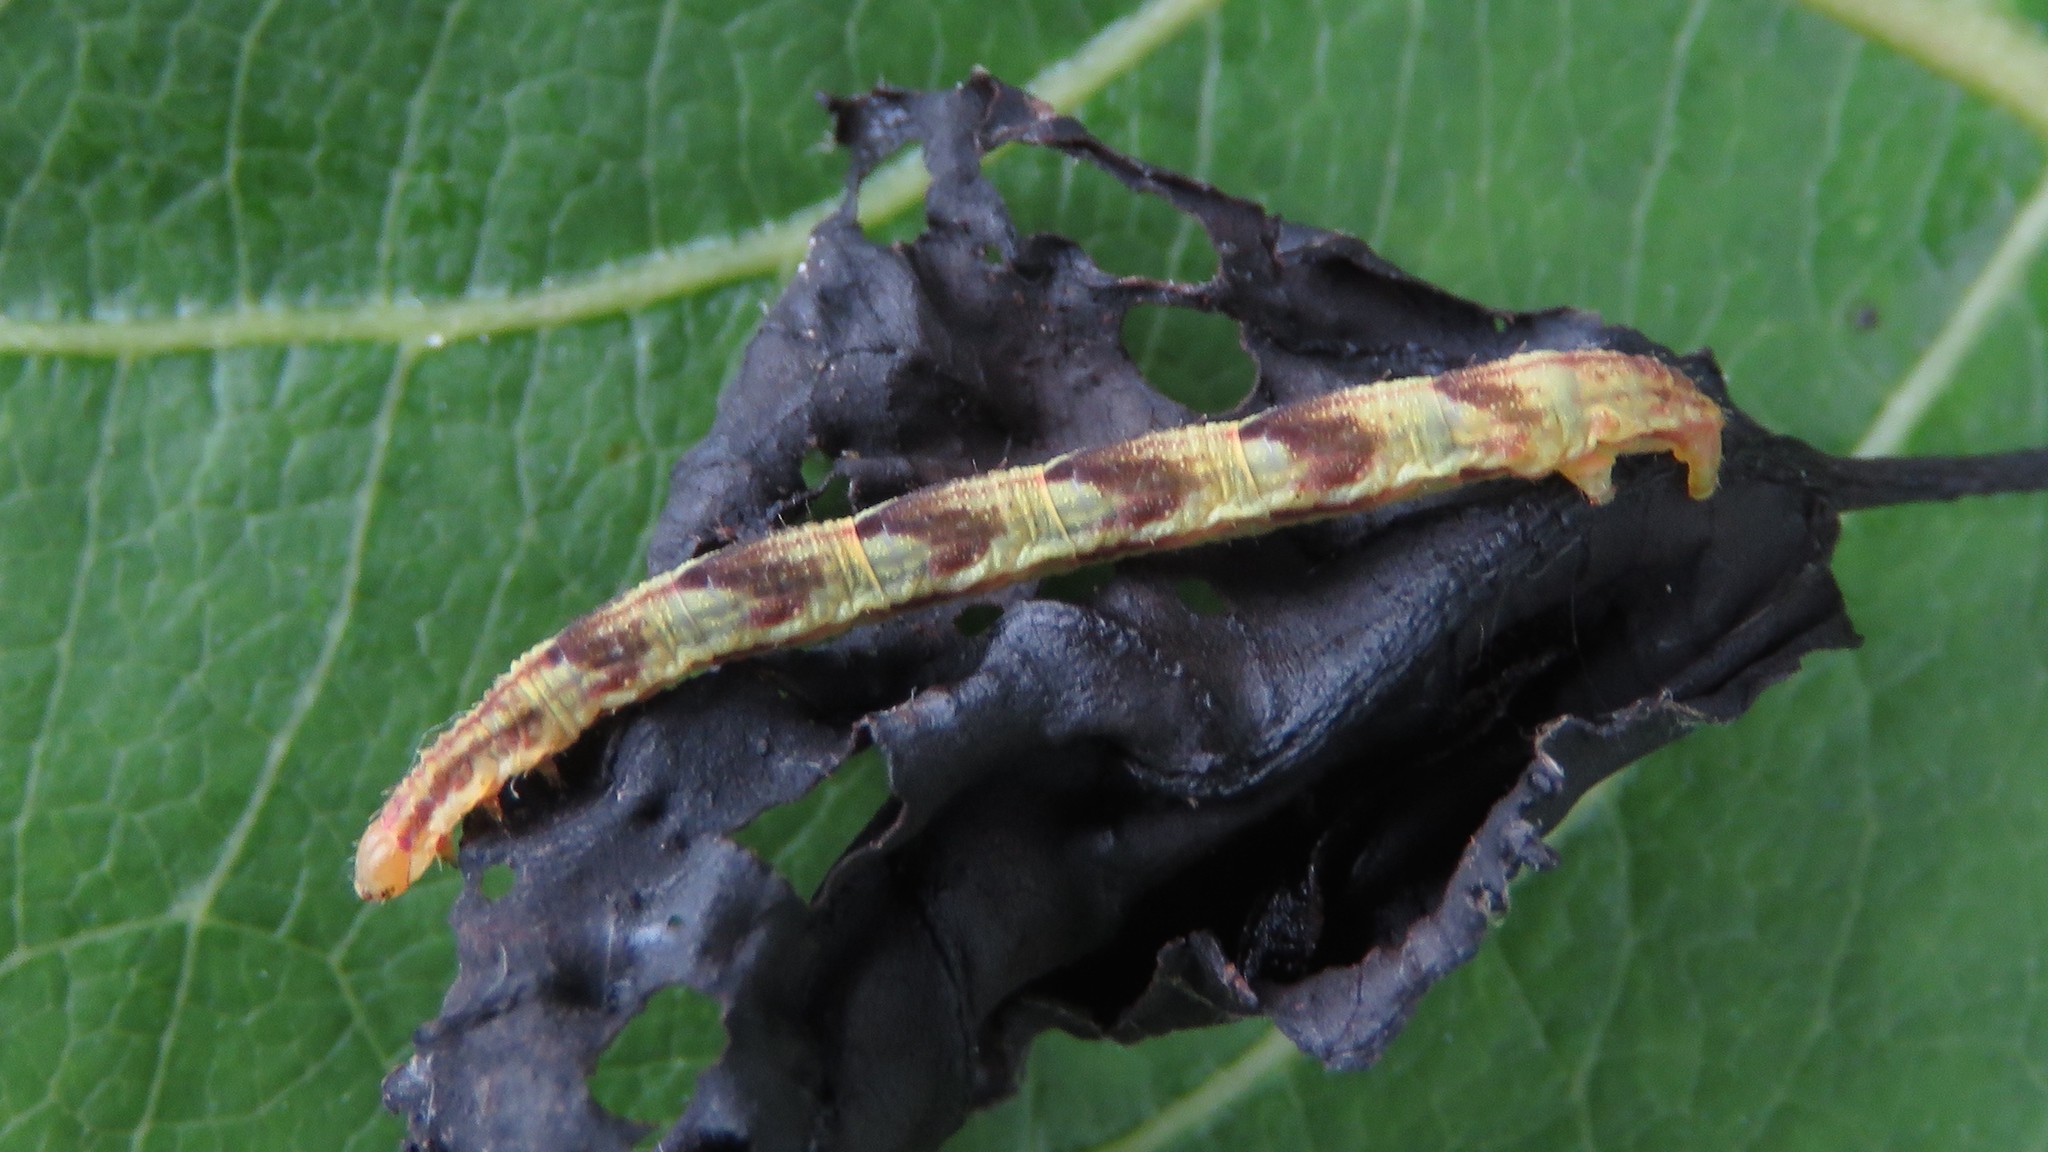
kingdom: Animalia
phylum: Arthropoda
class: Insecta
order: Lepidoptera
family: Geometridae
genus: Eupithecia
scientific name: Eupithecia miserulata
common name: Common eupithecia
